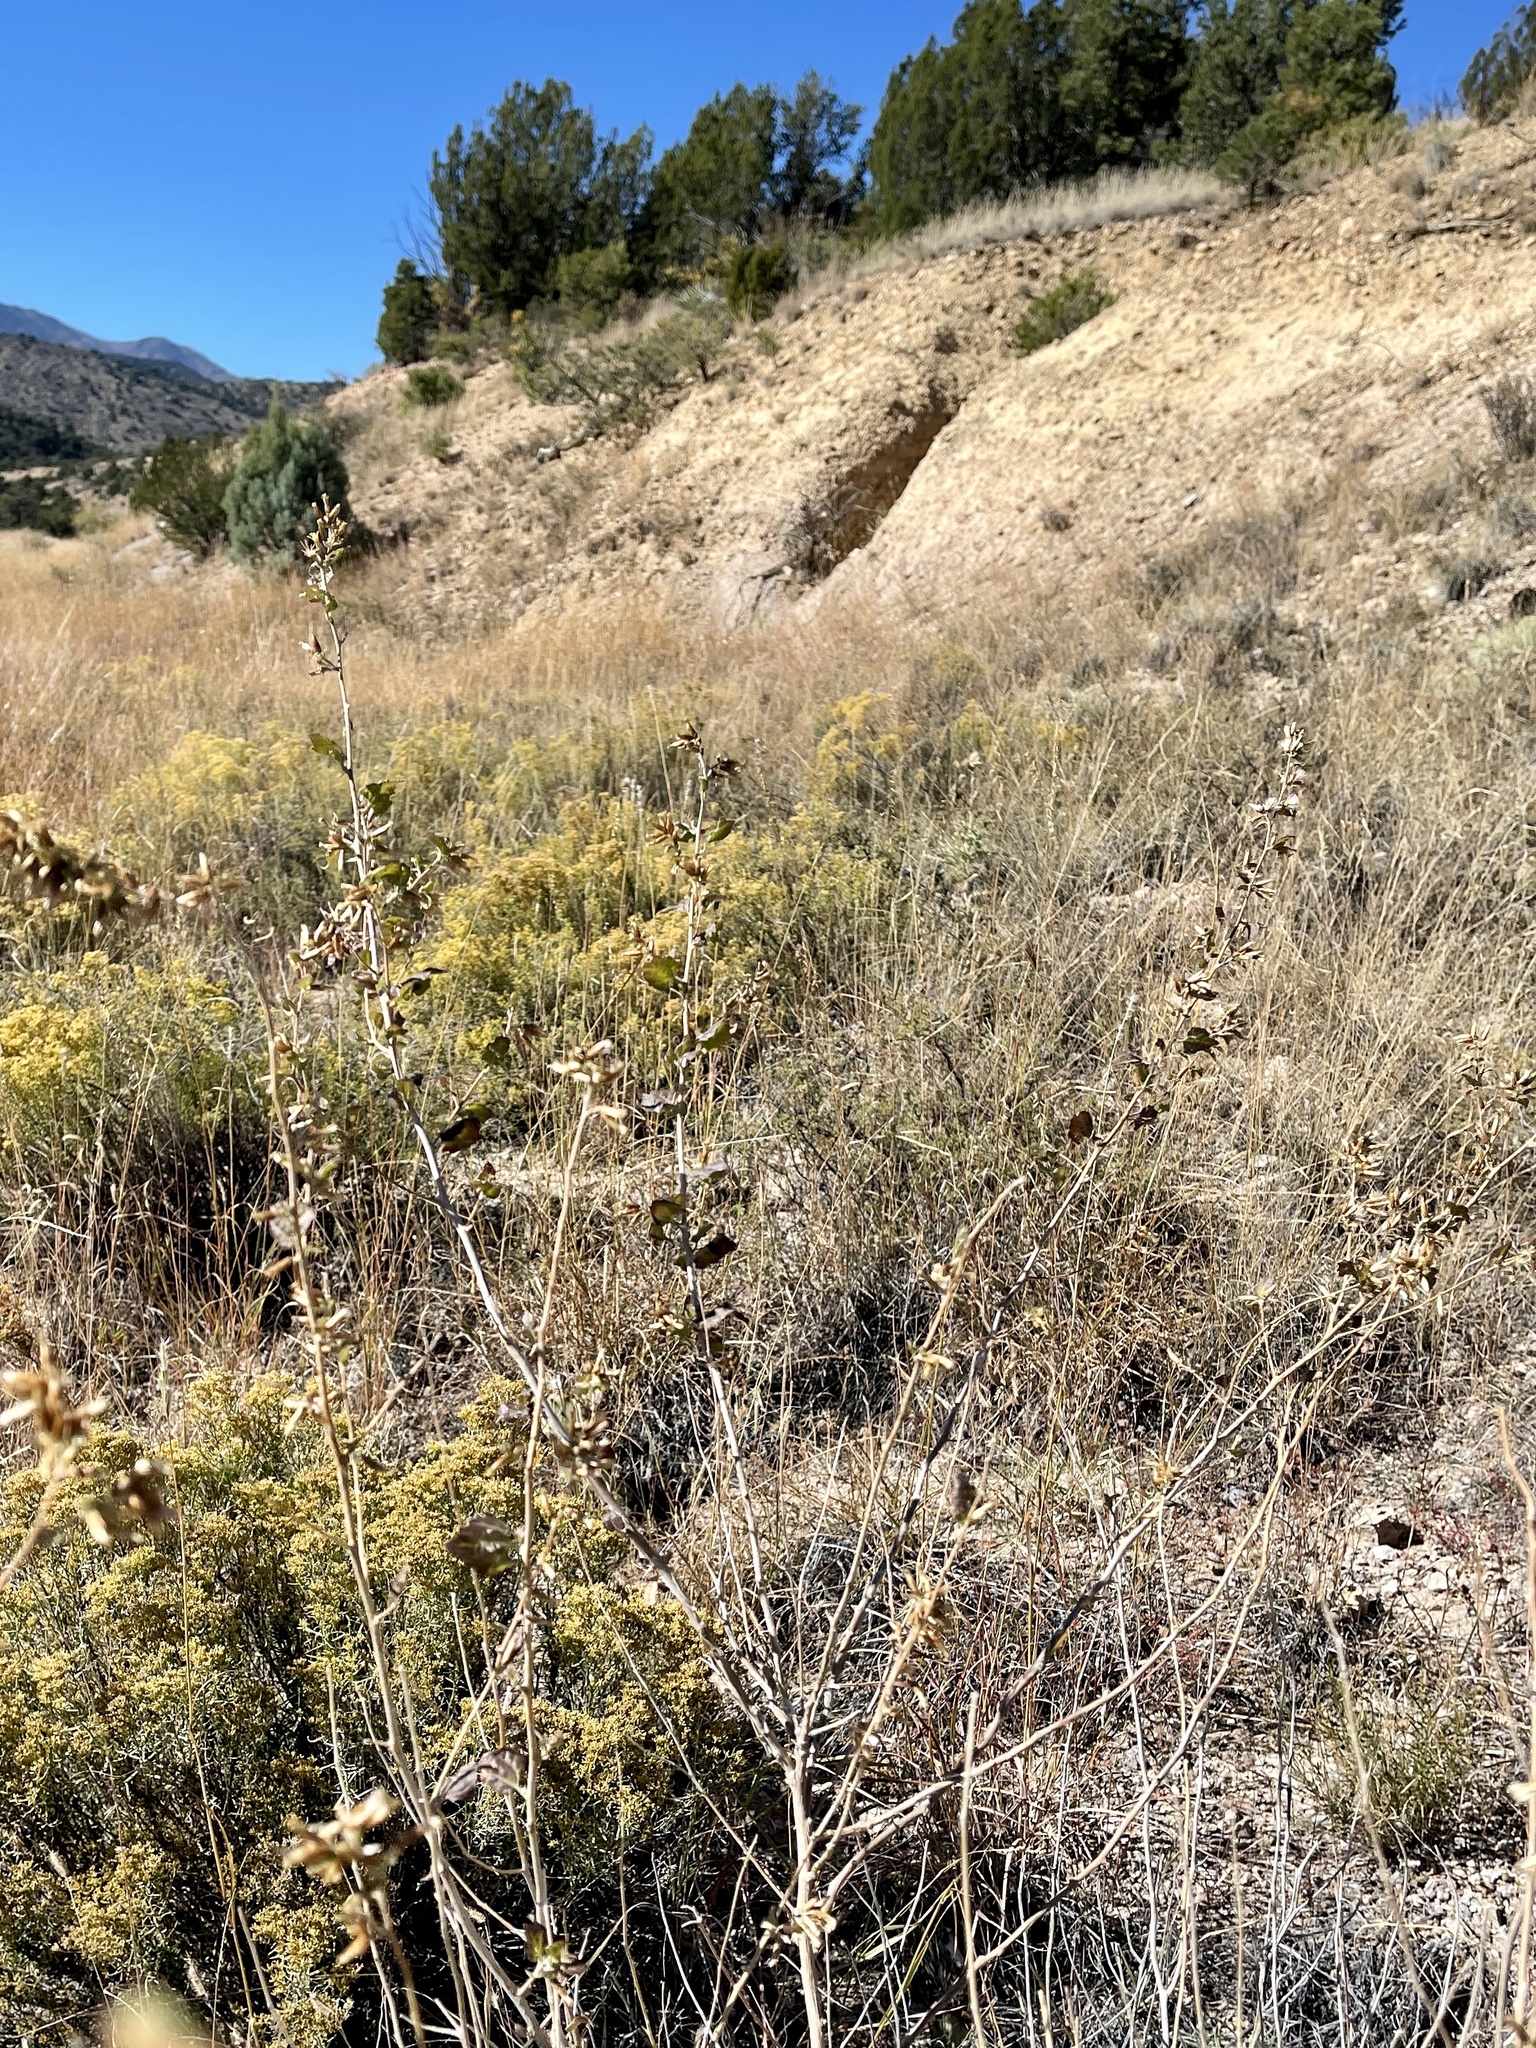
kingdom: Plantae
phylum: Tracheophyta
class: Magnoliopsida
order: Asterales
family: Asteraceae
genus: Brickellia
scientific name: Brickellia californica
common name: California brickellbush
